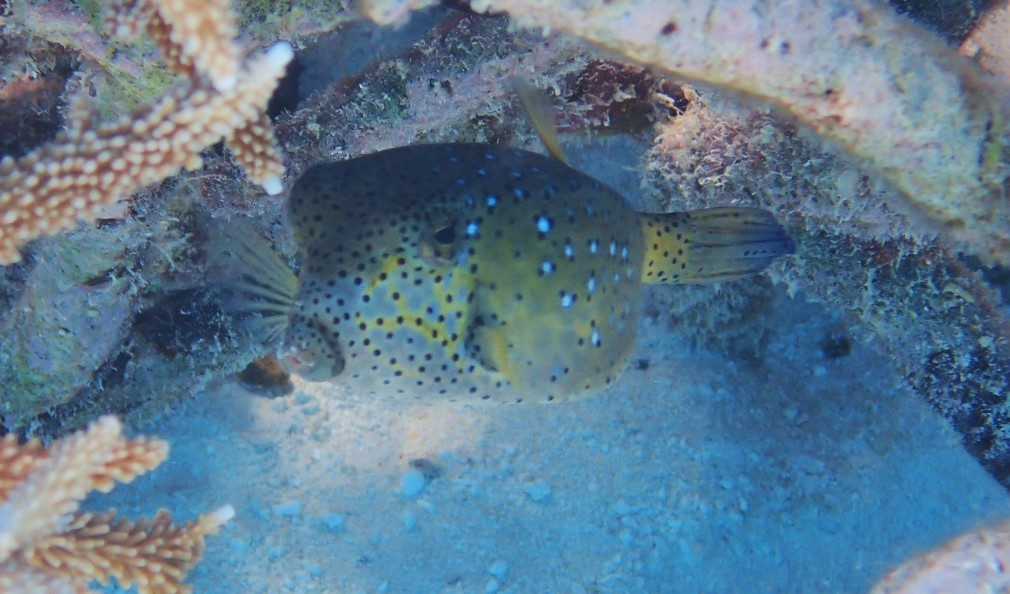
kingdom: Animalia
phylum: Chordata
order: Tetraodontiformes
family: Ostraciidae
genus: Ostracion
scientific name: Ostracion cubicus
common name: Cube trunkfish
